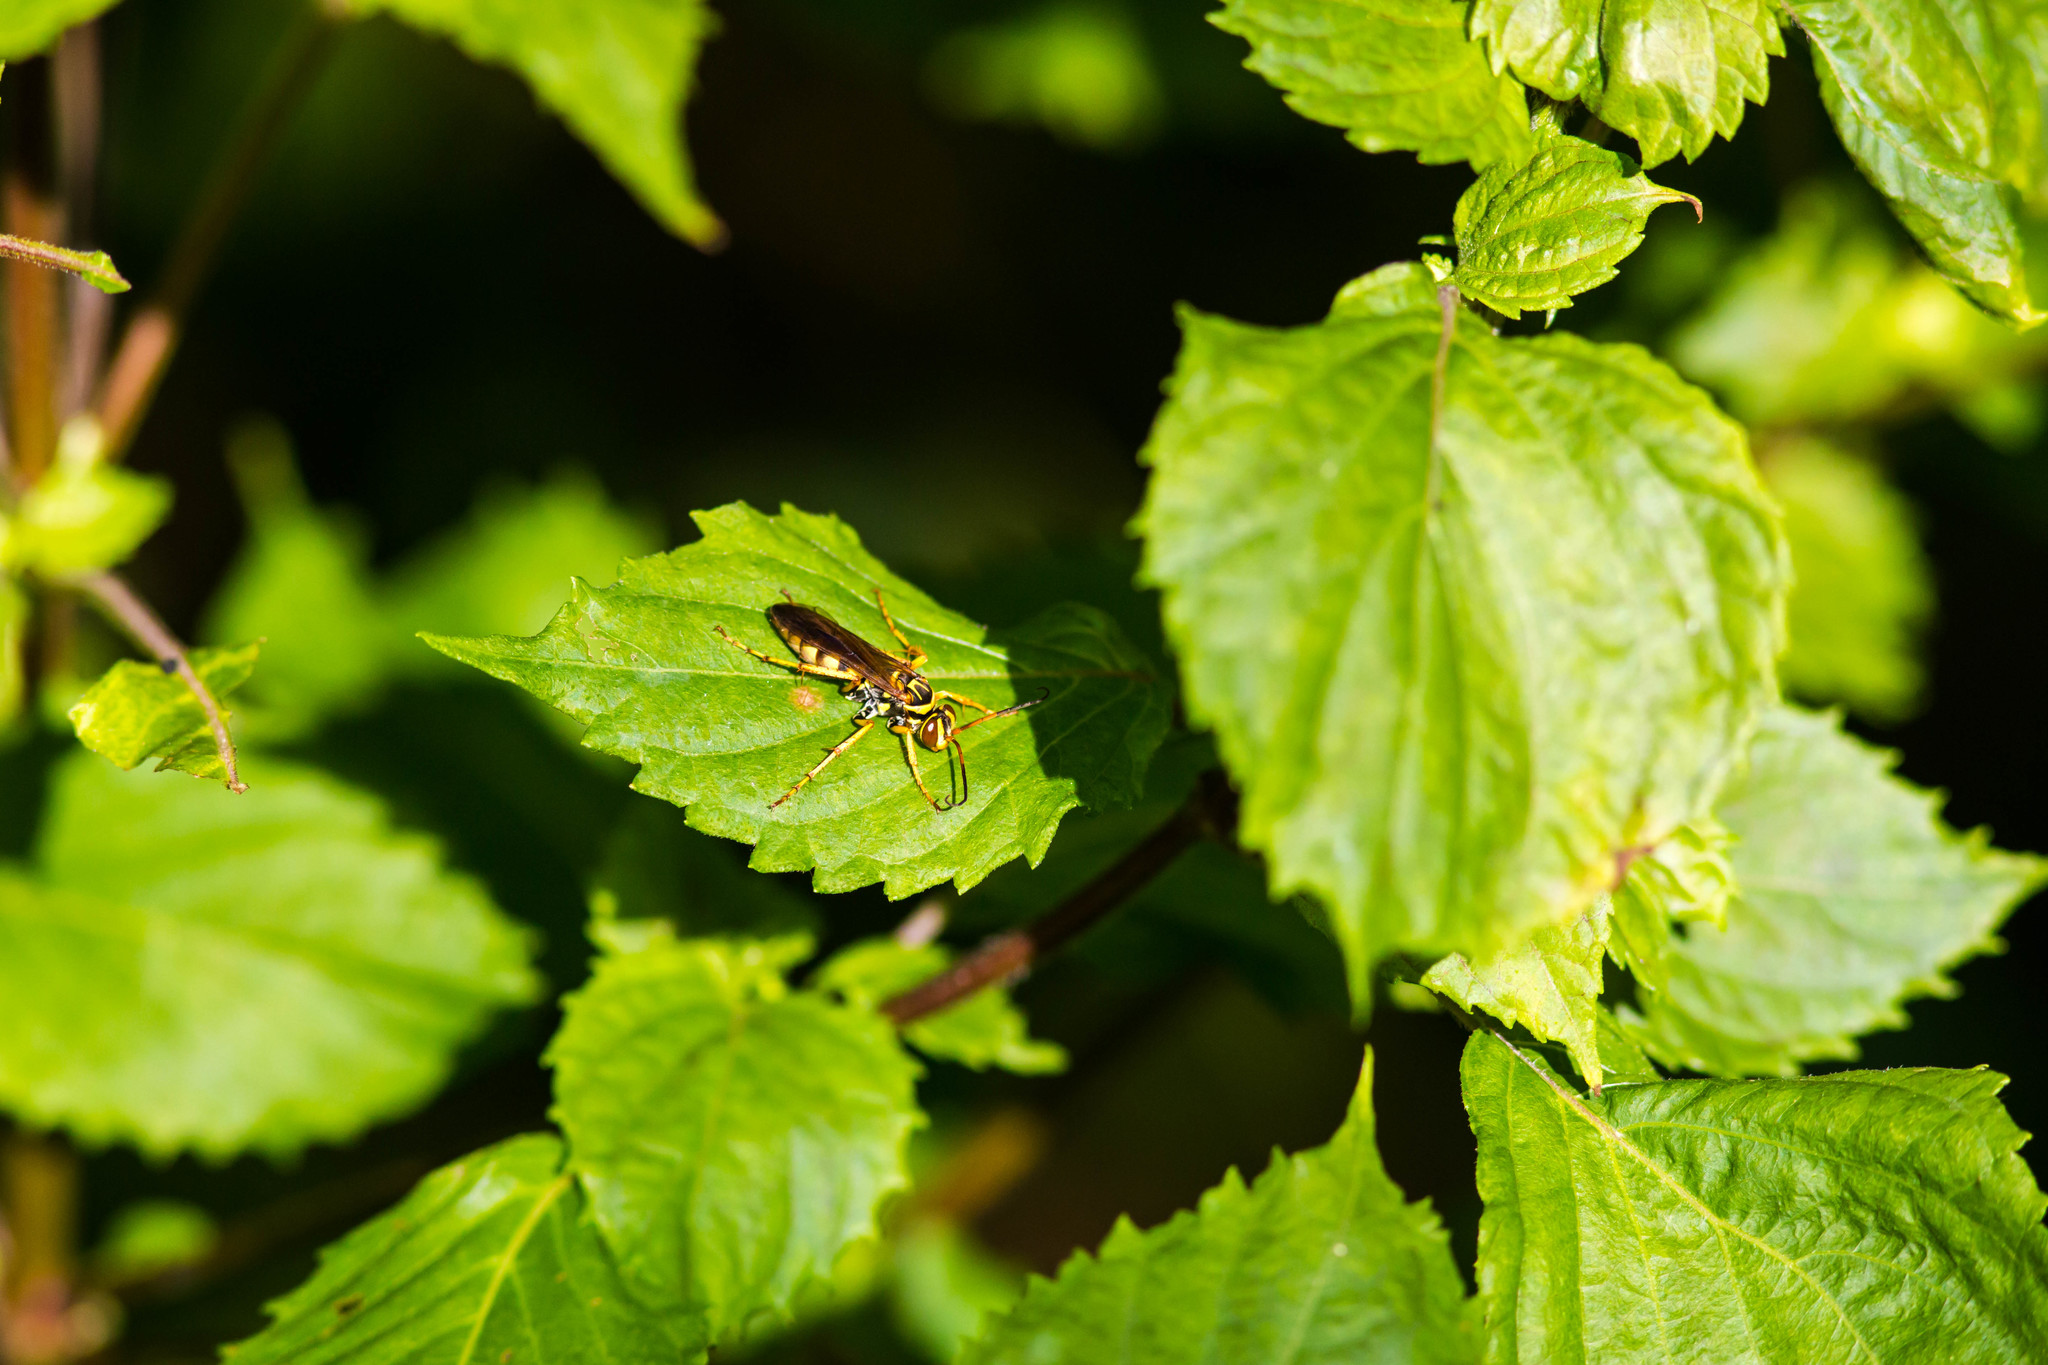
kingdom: Animalia
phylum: Arthropoda
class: Insecta
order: Hymenoptera
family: Pompilidae
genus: Poecilopompilus
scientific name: Poecilopompilus interruptus
